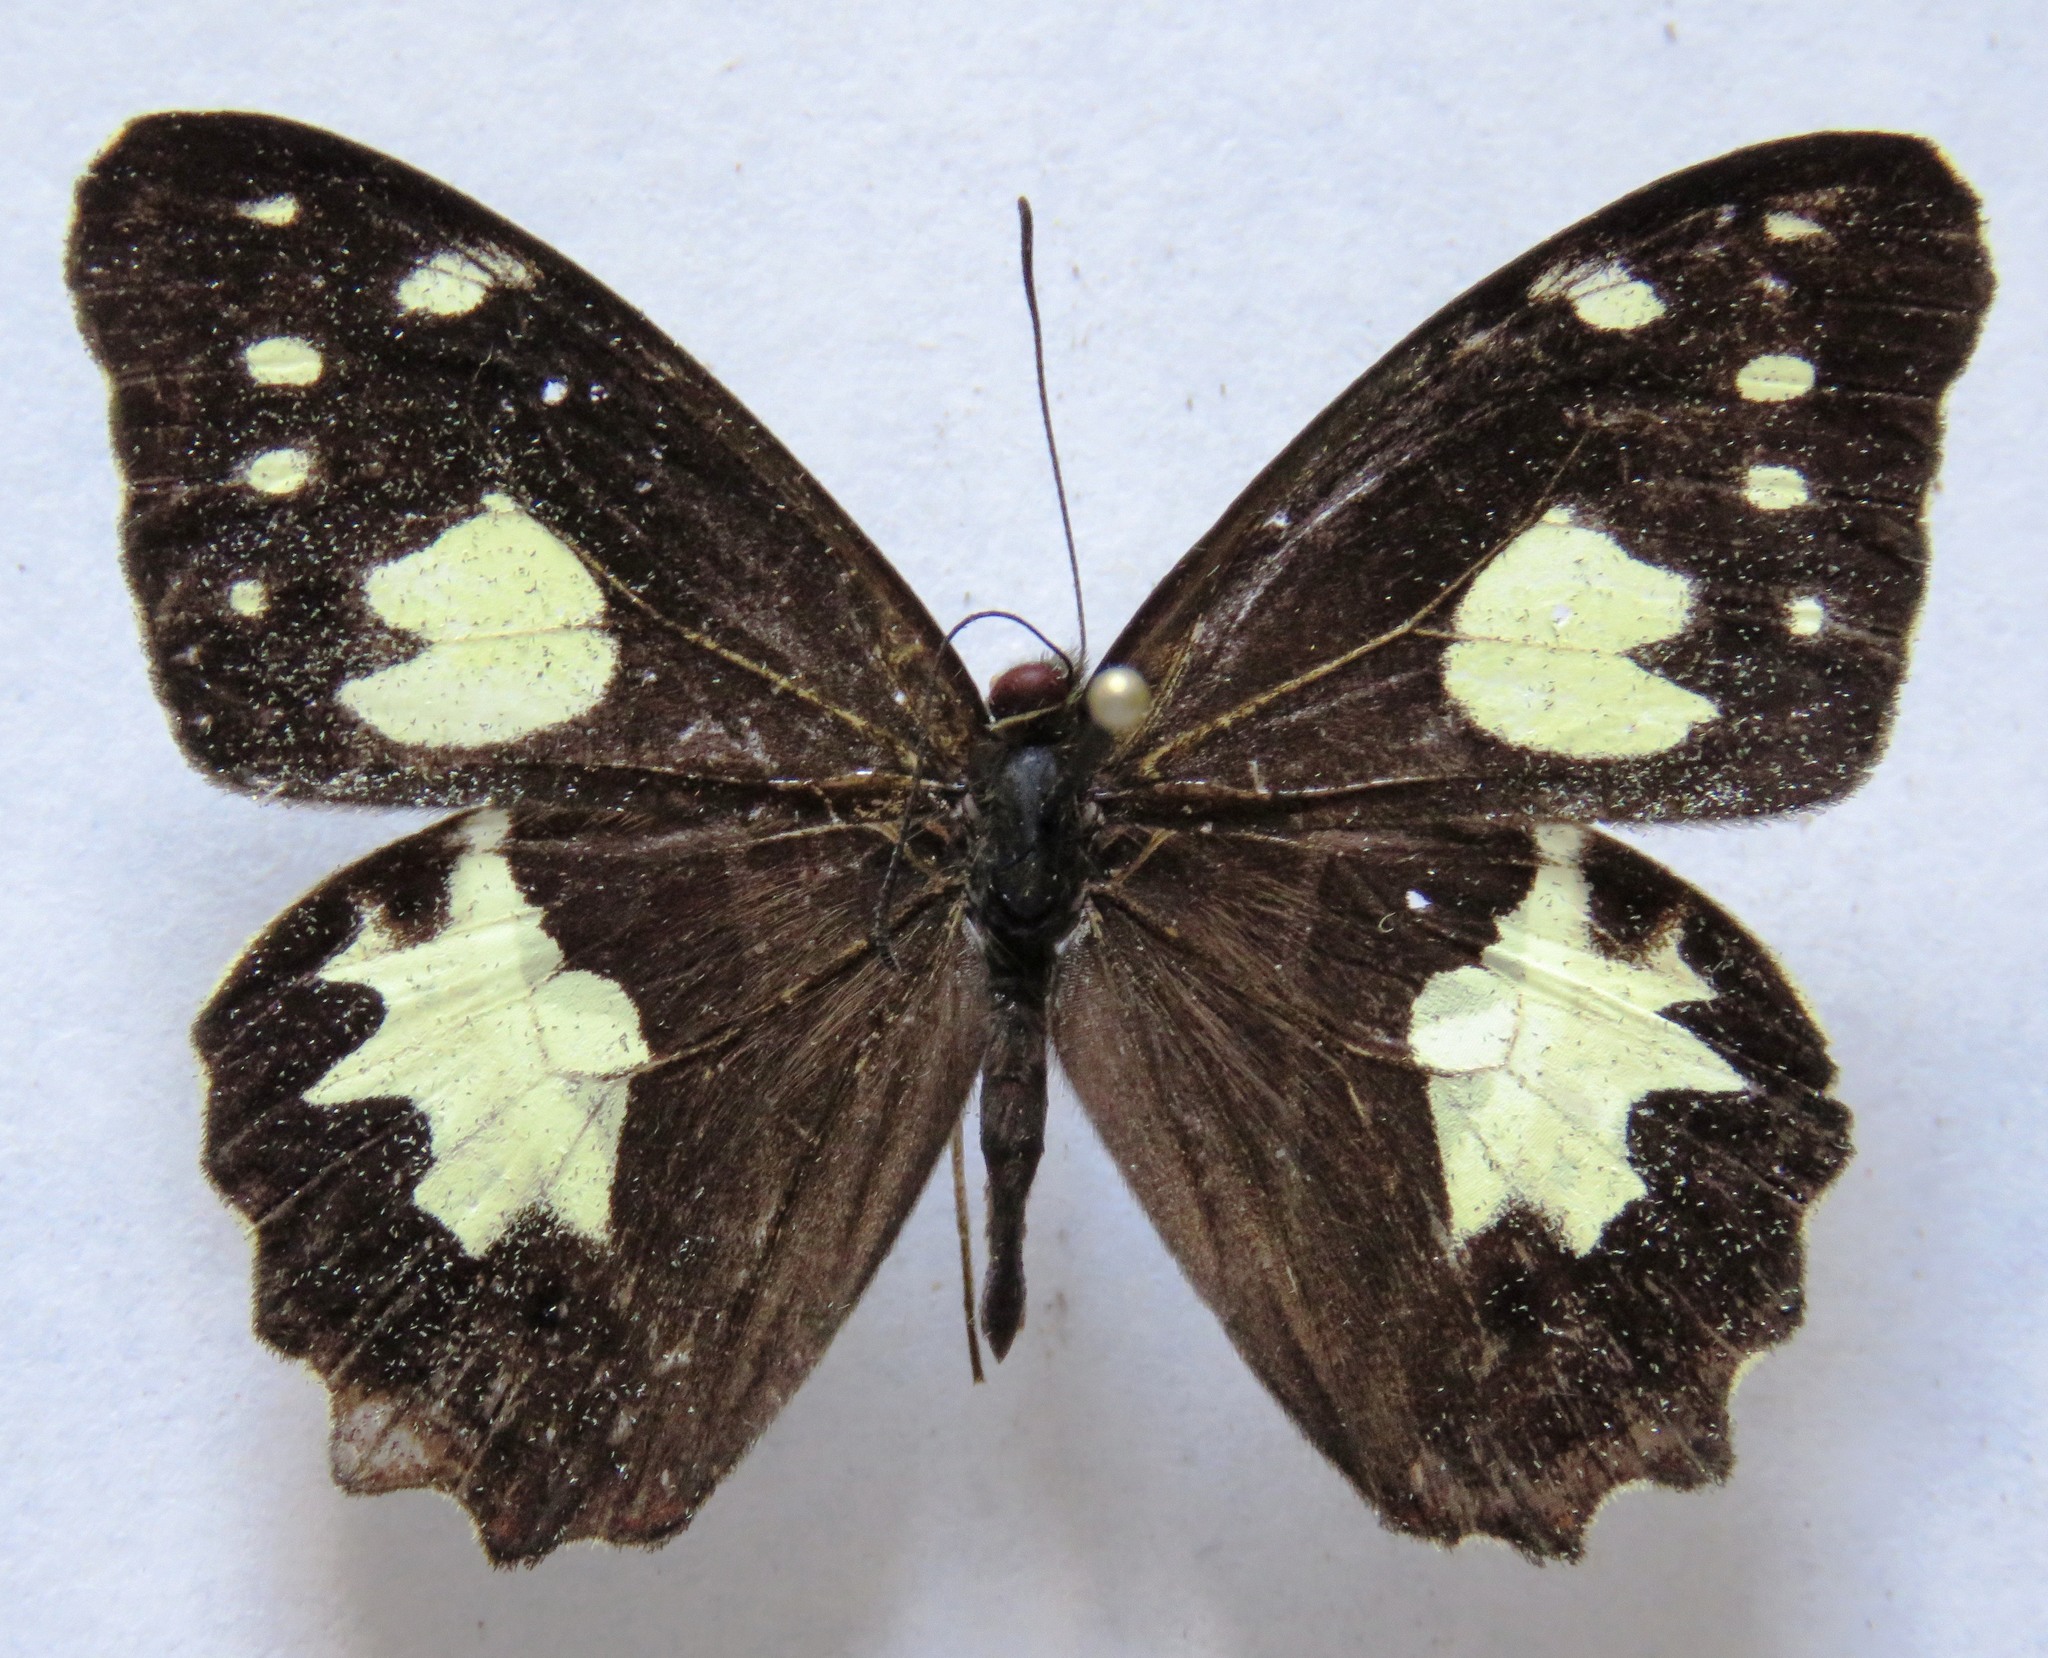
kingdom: Animalia
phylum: Arthropoda
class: Insecta
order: Lepidoptera
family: Nymphalidae
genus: Oxeoschistus
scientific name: Oxeoschistus tauropolis
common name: Starred oxeo
